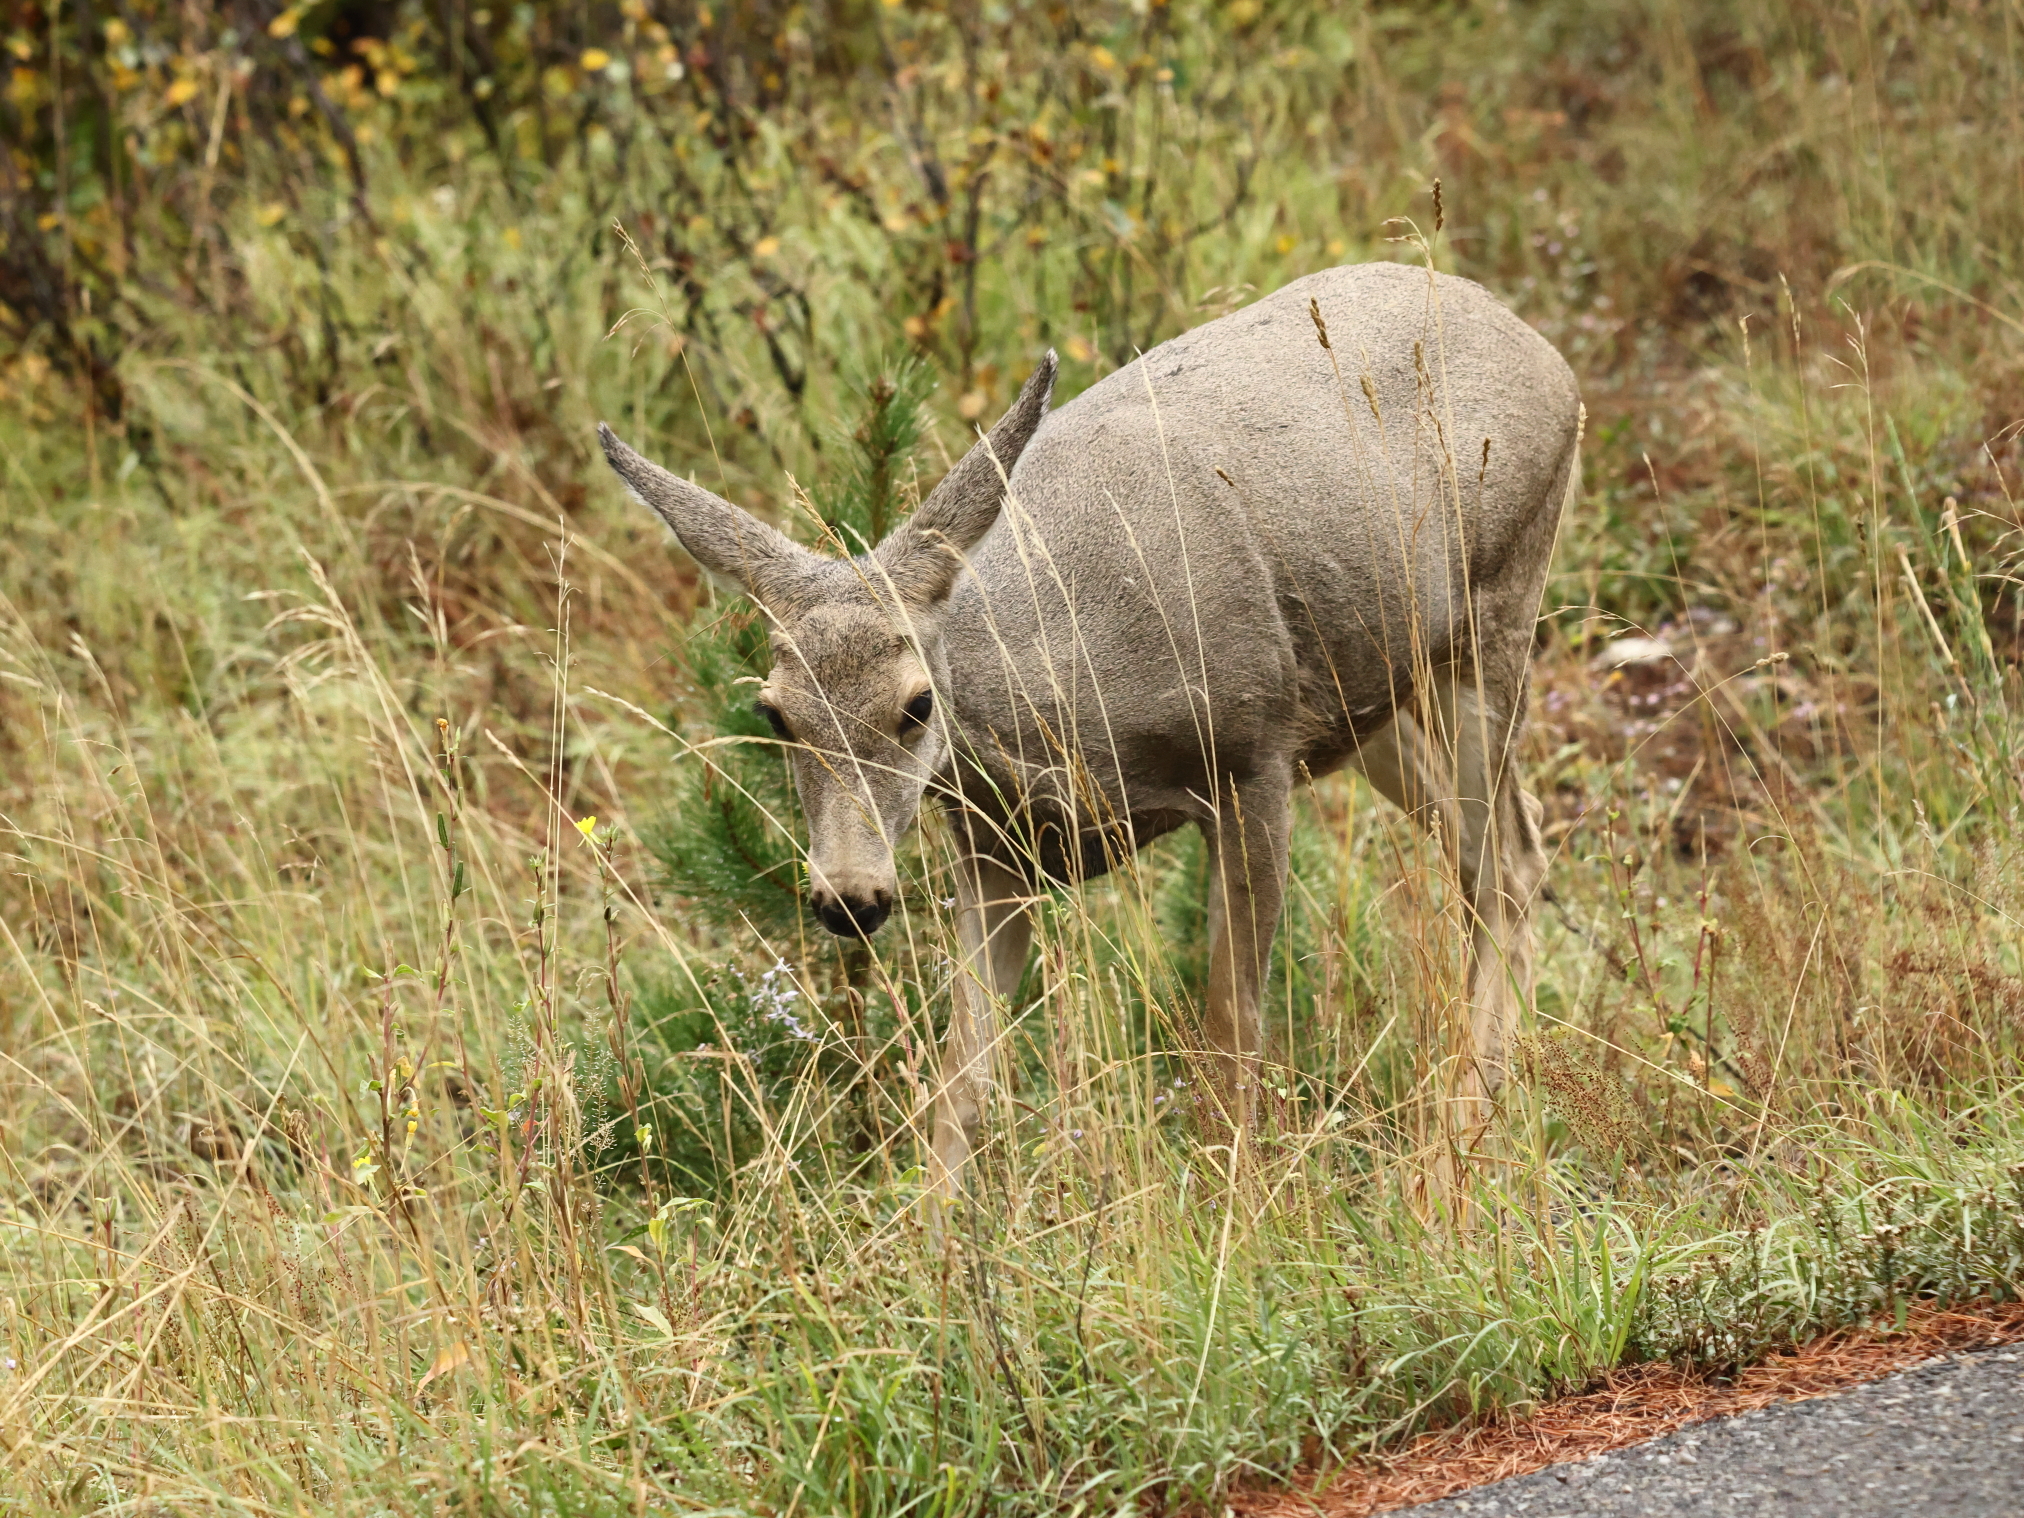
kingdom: Animalia
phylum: Chordata
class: Mammalia
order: Artiodactyla
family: Cervidae
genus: Odocoileus
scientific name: Odocoileus hemionus
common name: Mule deer
